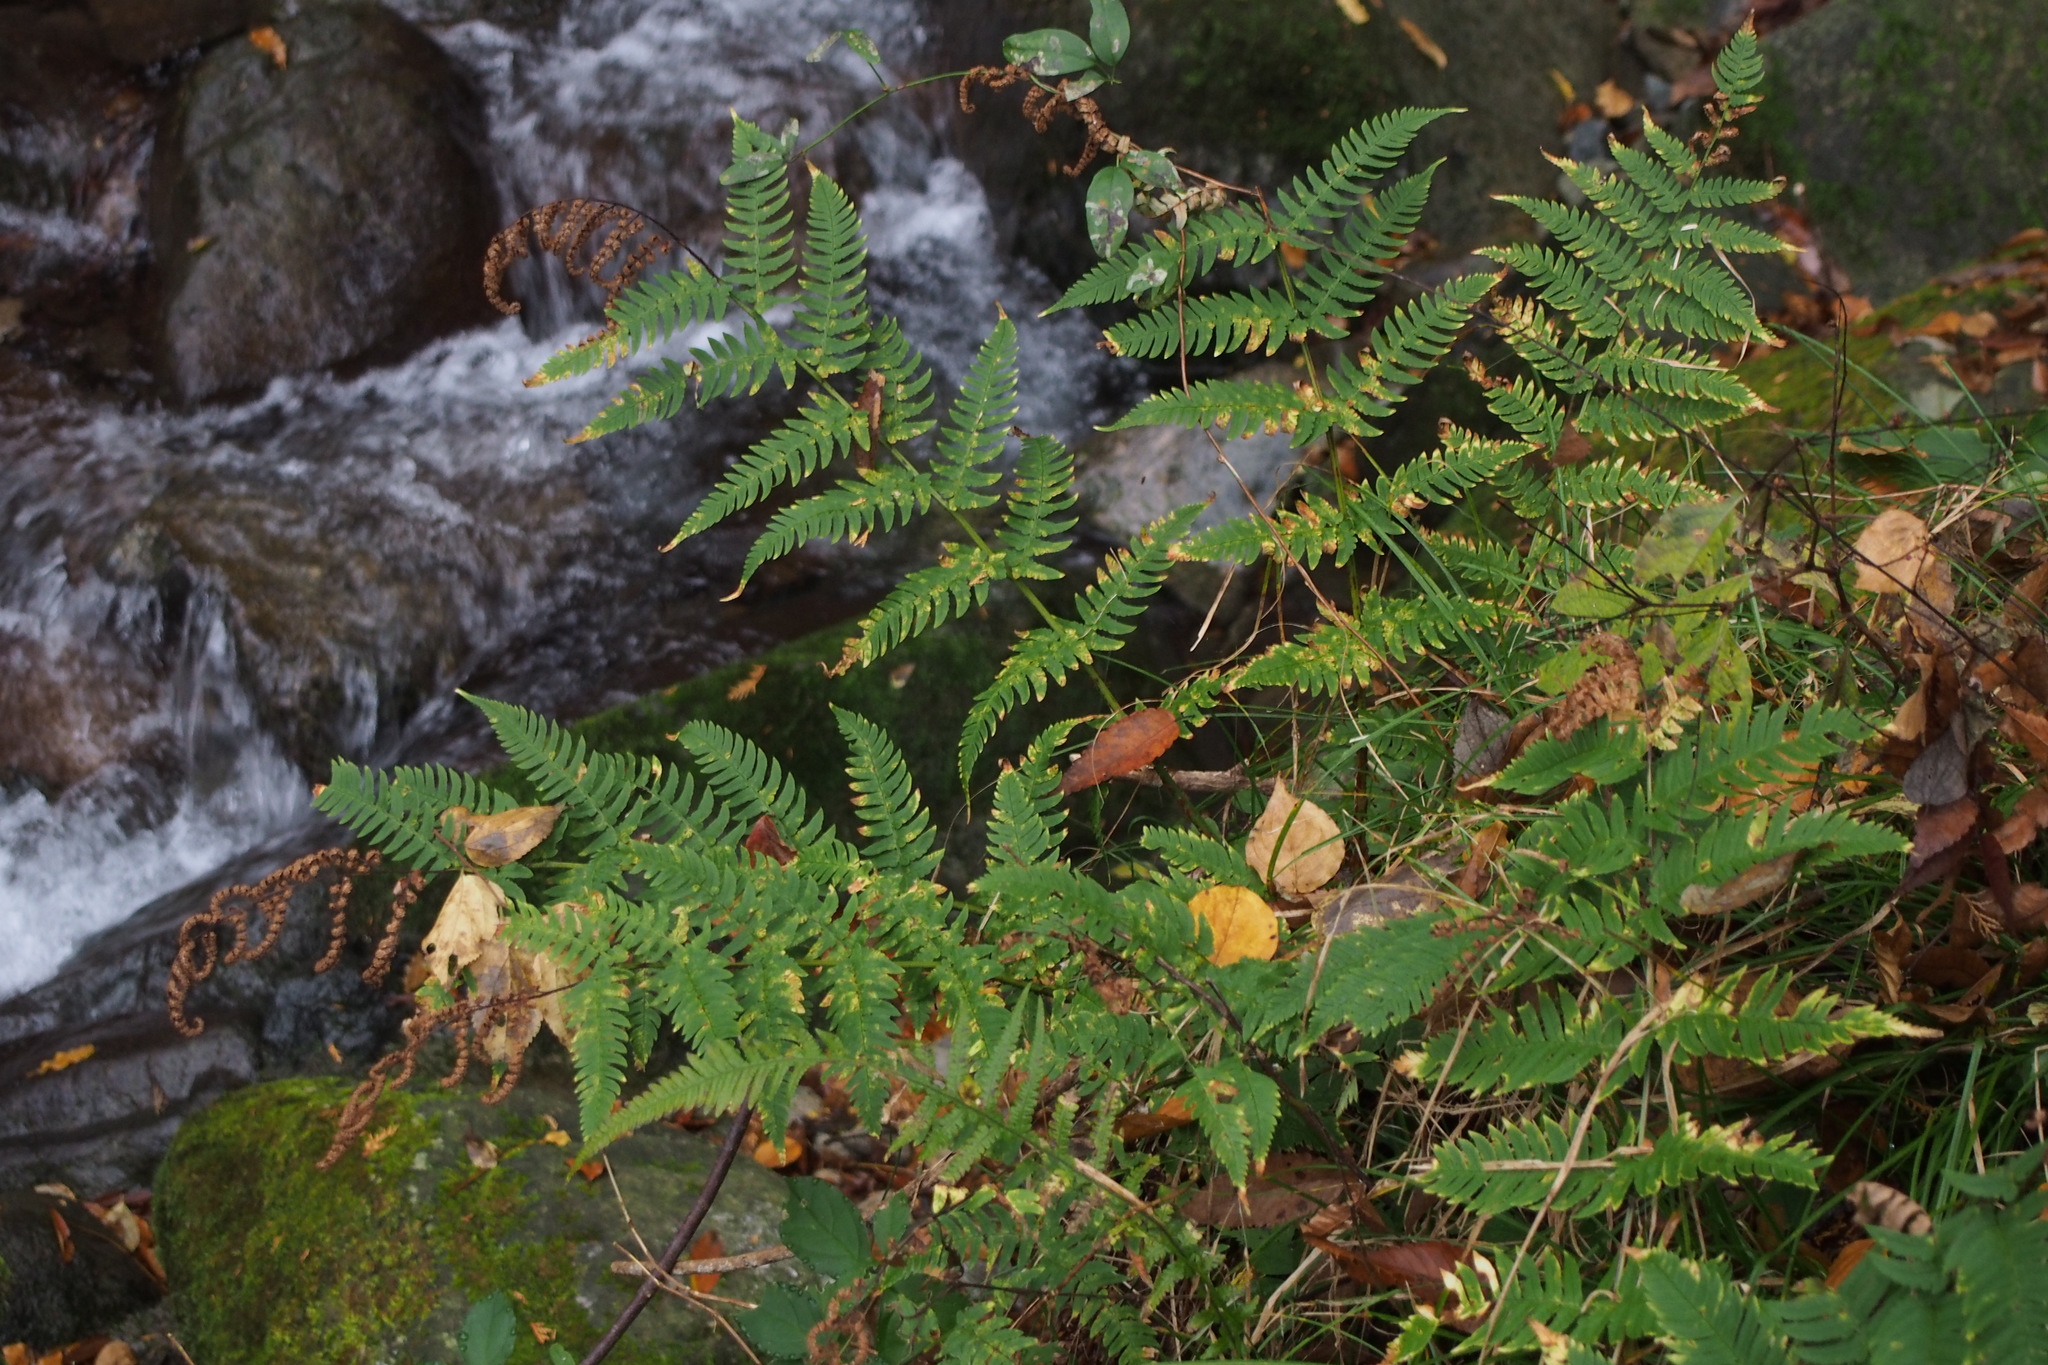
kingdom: Plantae
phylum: Tracheophyta
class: Polypodiopsida
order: Polypodiales
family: Dryopteridaceae
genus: Dryopteris
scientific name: Dryopteris lacera
